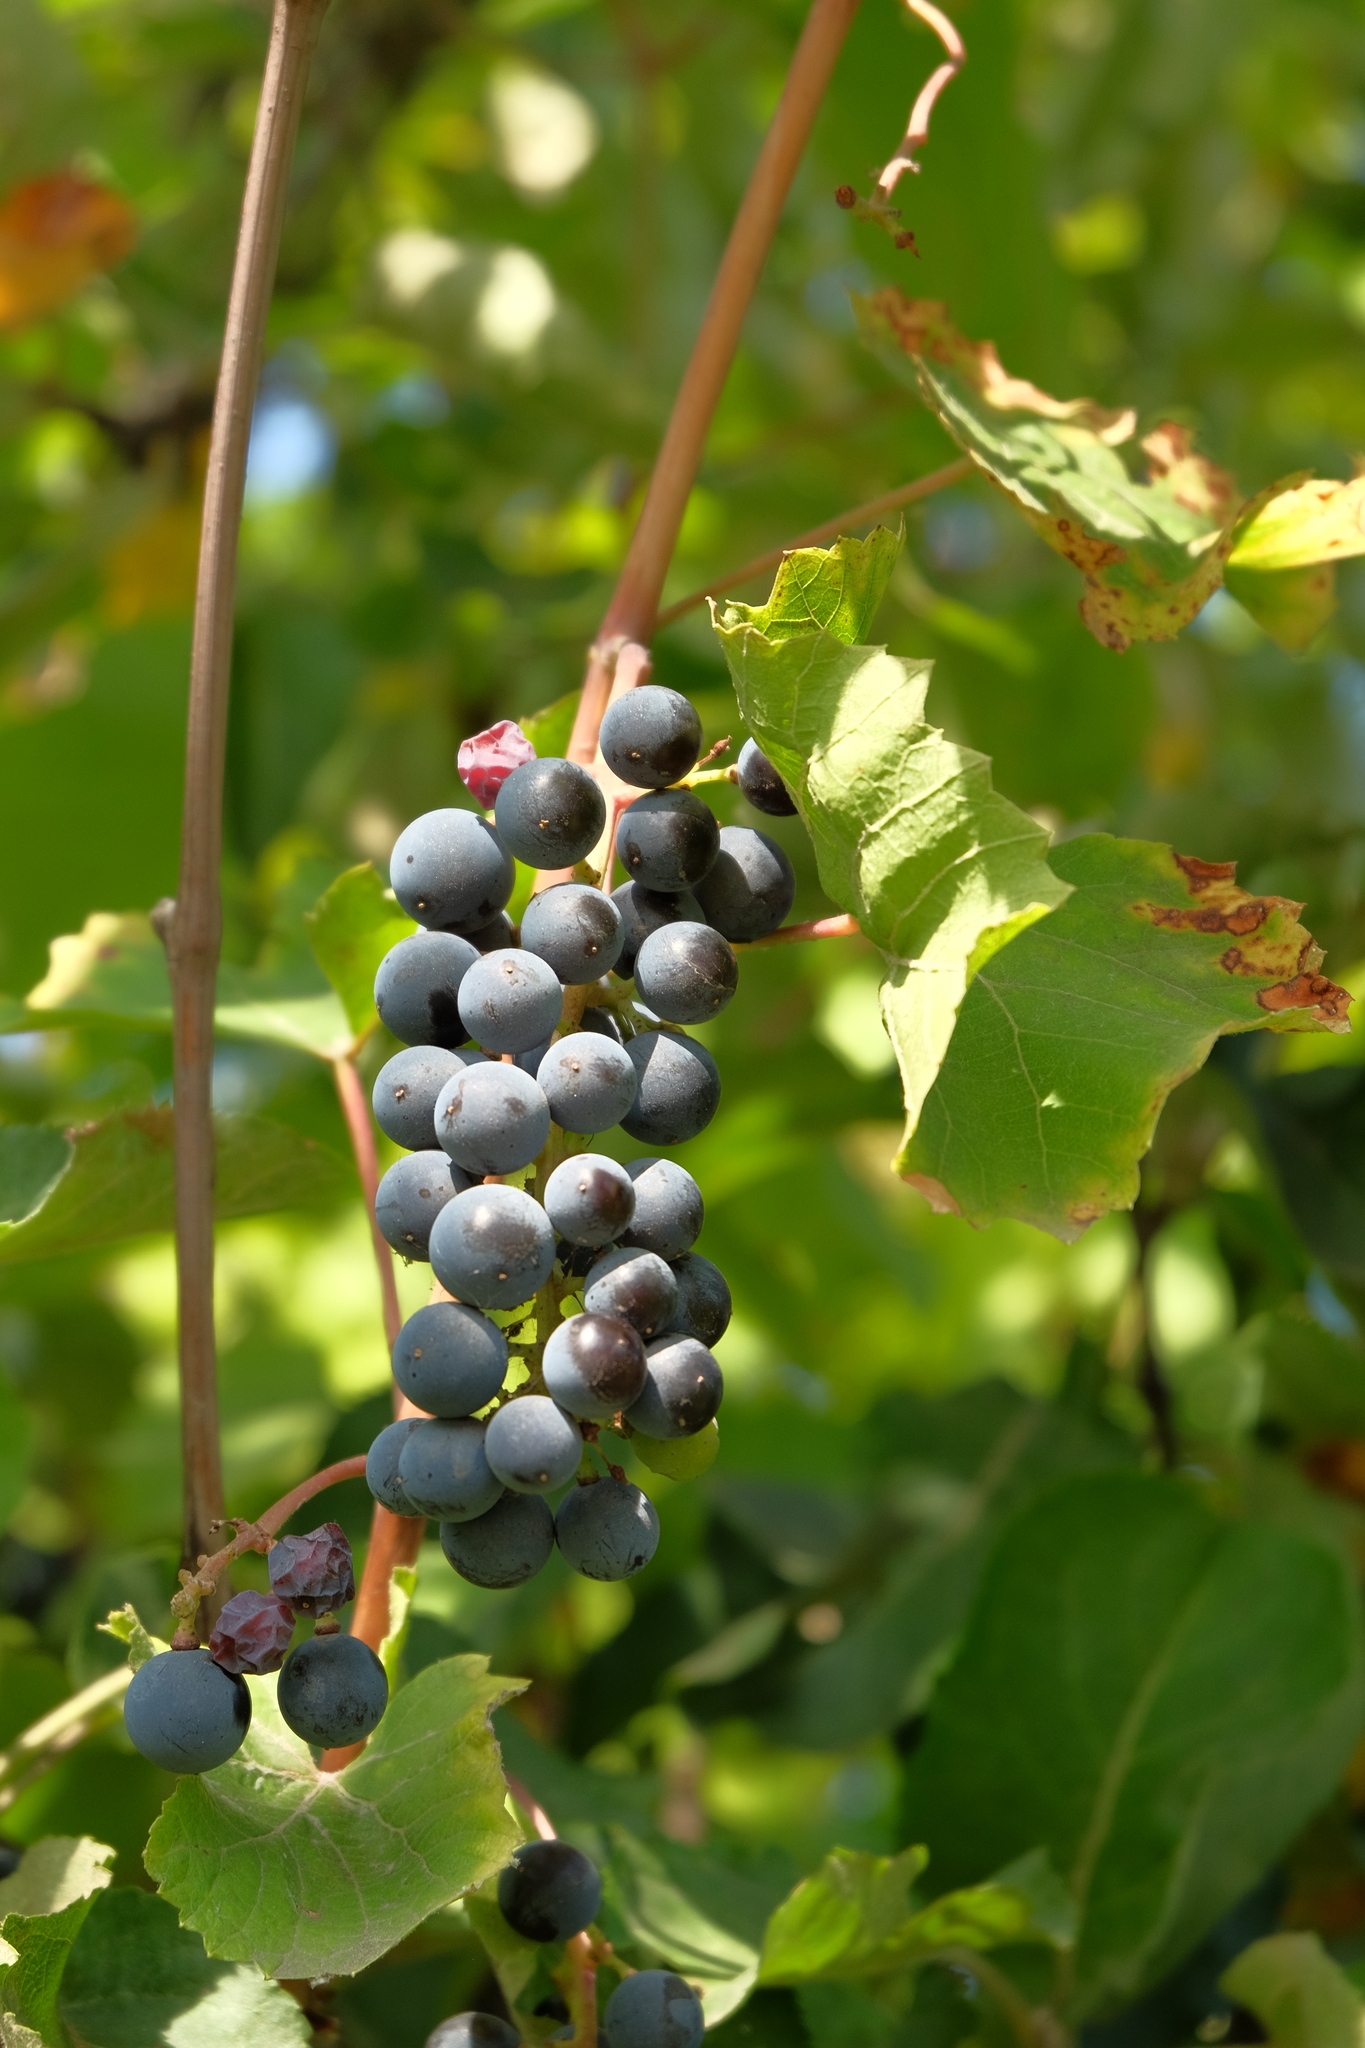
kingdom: Plantae
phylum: Tracheophyta
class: Magnoliopsida
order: Vitales
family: Vitaceae
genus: Vitis
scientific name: Vitis vinifera
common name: Grape-vine
